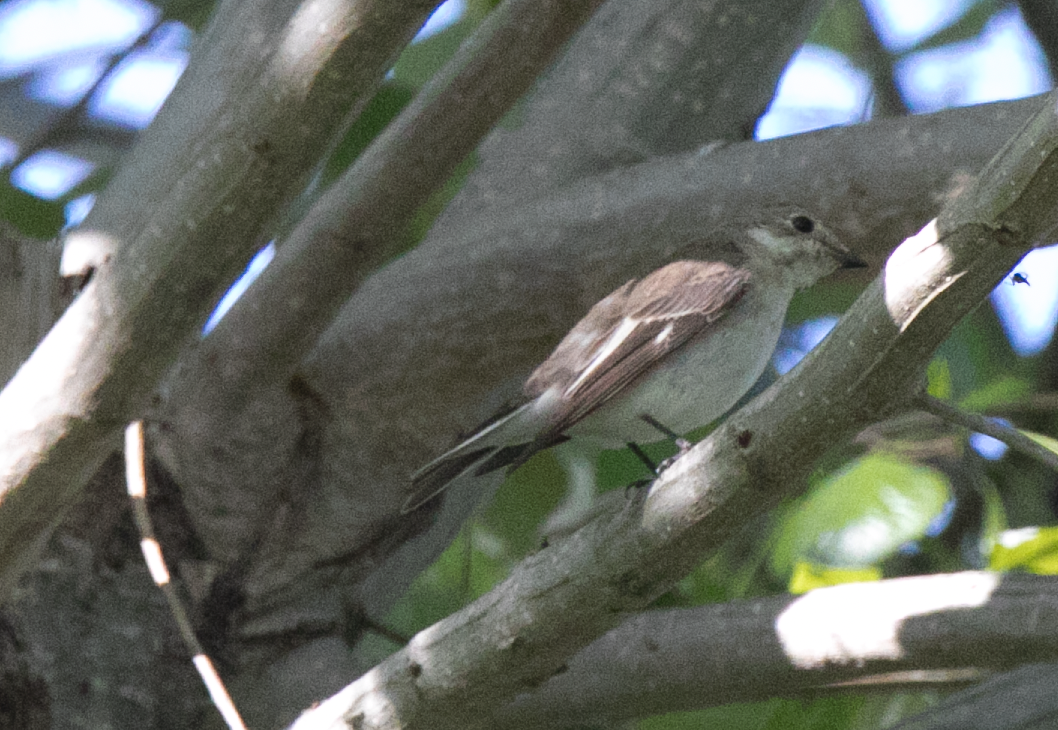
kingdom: Animalia
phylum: Chordata
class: Aves
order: Passeriformes
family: Muscicapidae
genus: Ficedula
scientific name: Ficedula hypoleuca
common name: European pied flycatcher
